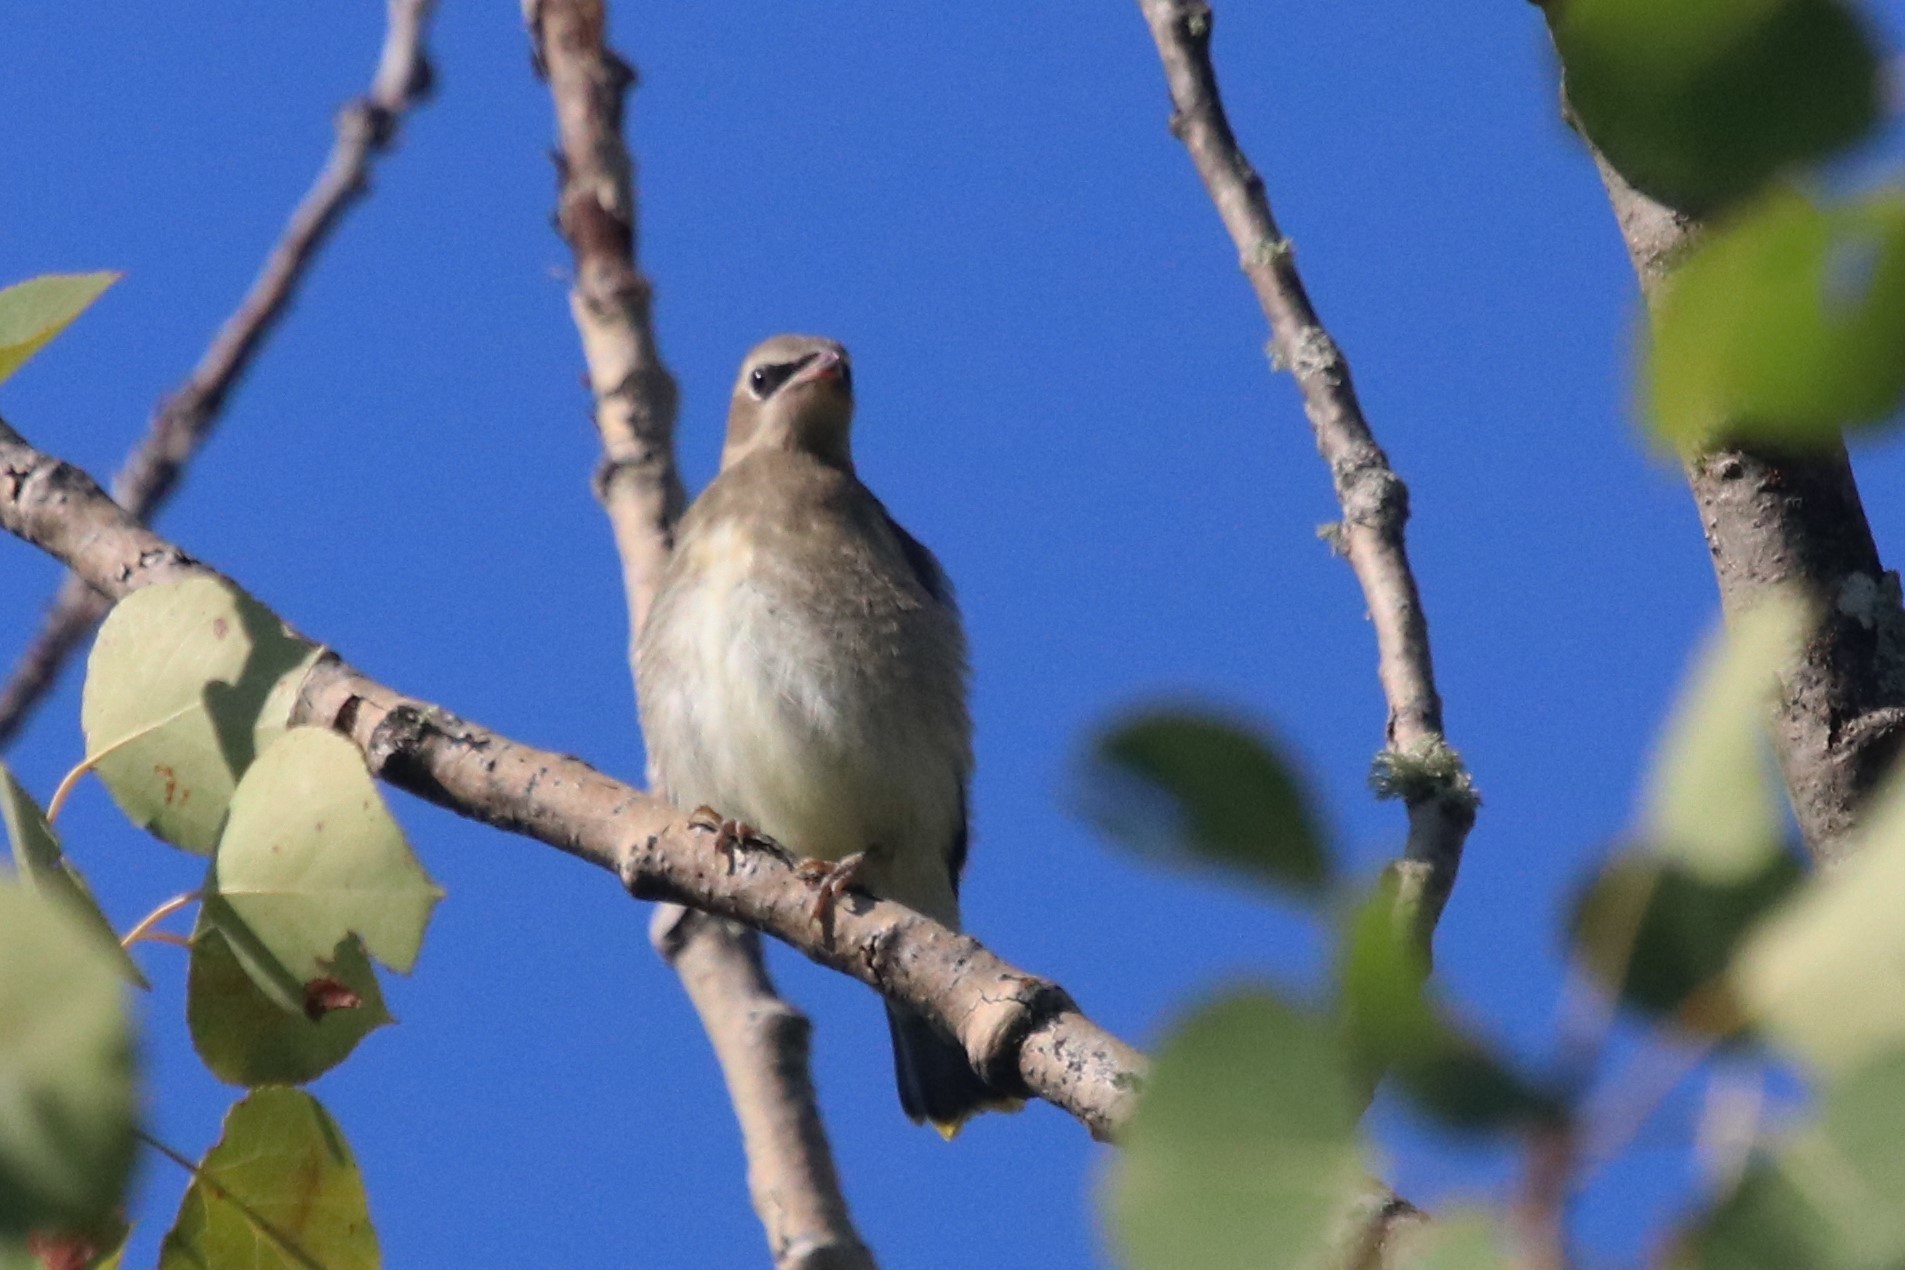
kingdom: Animalia
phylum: Chordata
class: Aves
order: Passeriformes
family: Bombycillidae
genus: Bombycilla
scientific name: Bombycilla cedrorum
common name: Cedar waxwing
